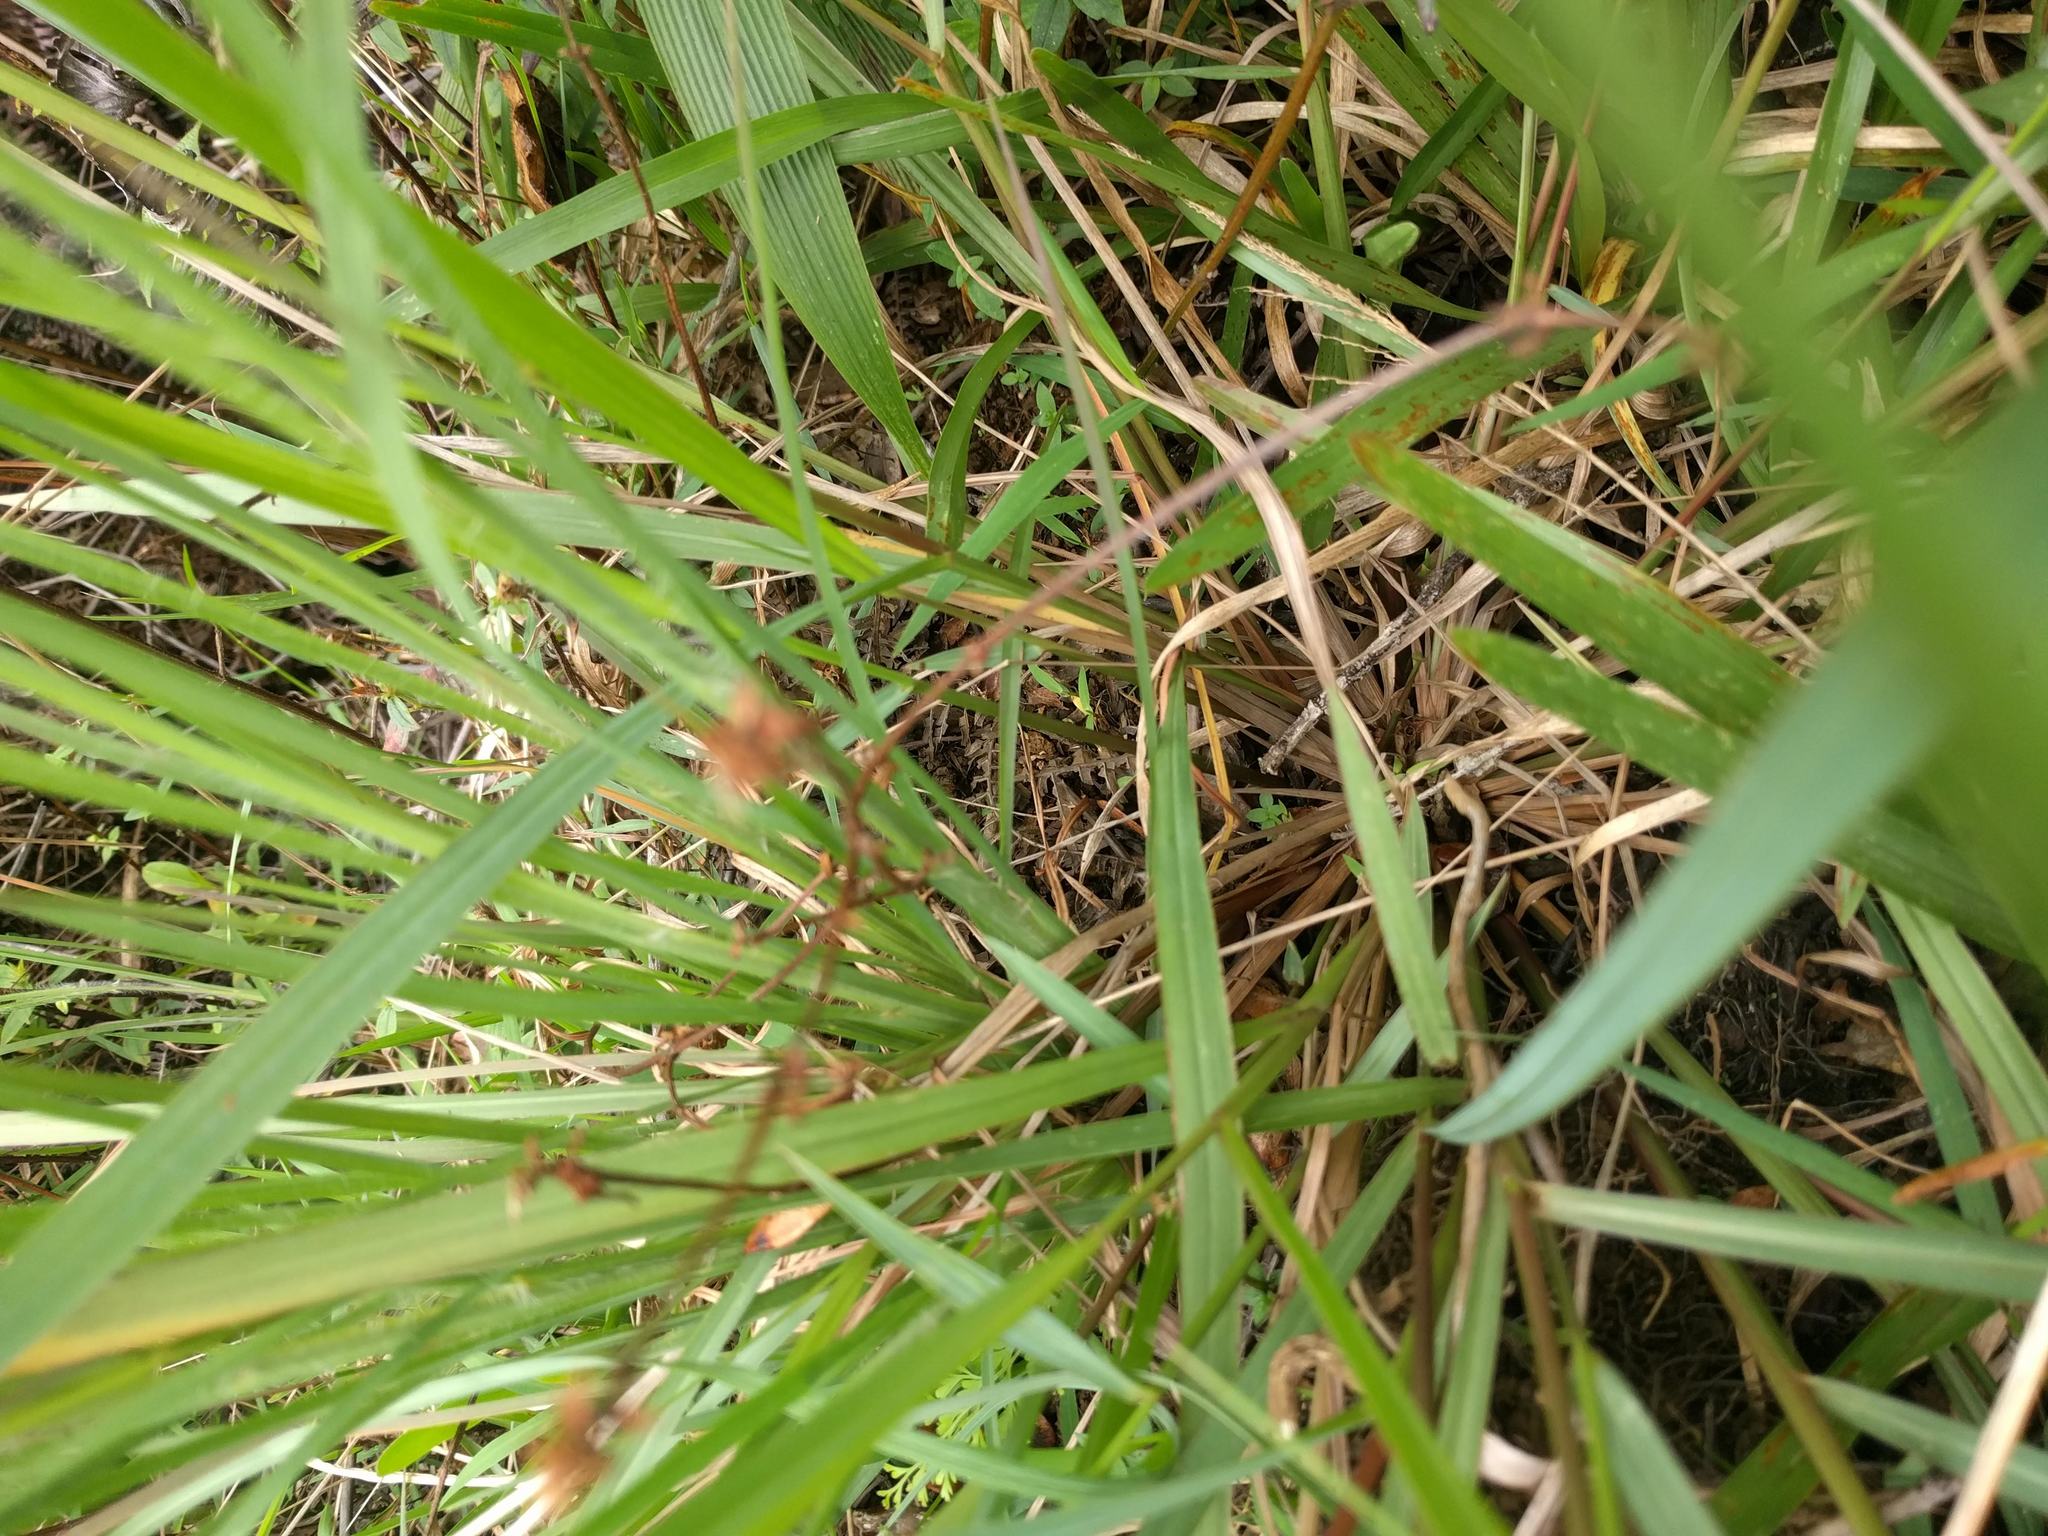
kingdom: Plantae
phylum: Tracheophyta
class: Liliopsida
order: Poales
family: Poaceae
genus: Paspalum
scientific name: Paspalum scrobiculatum
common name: Kodo millet
